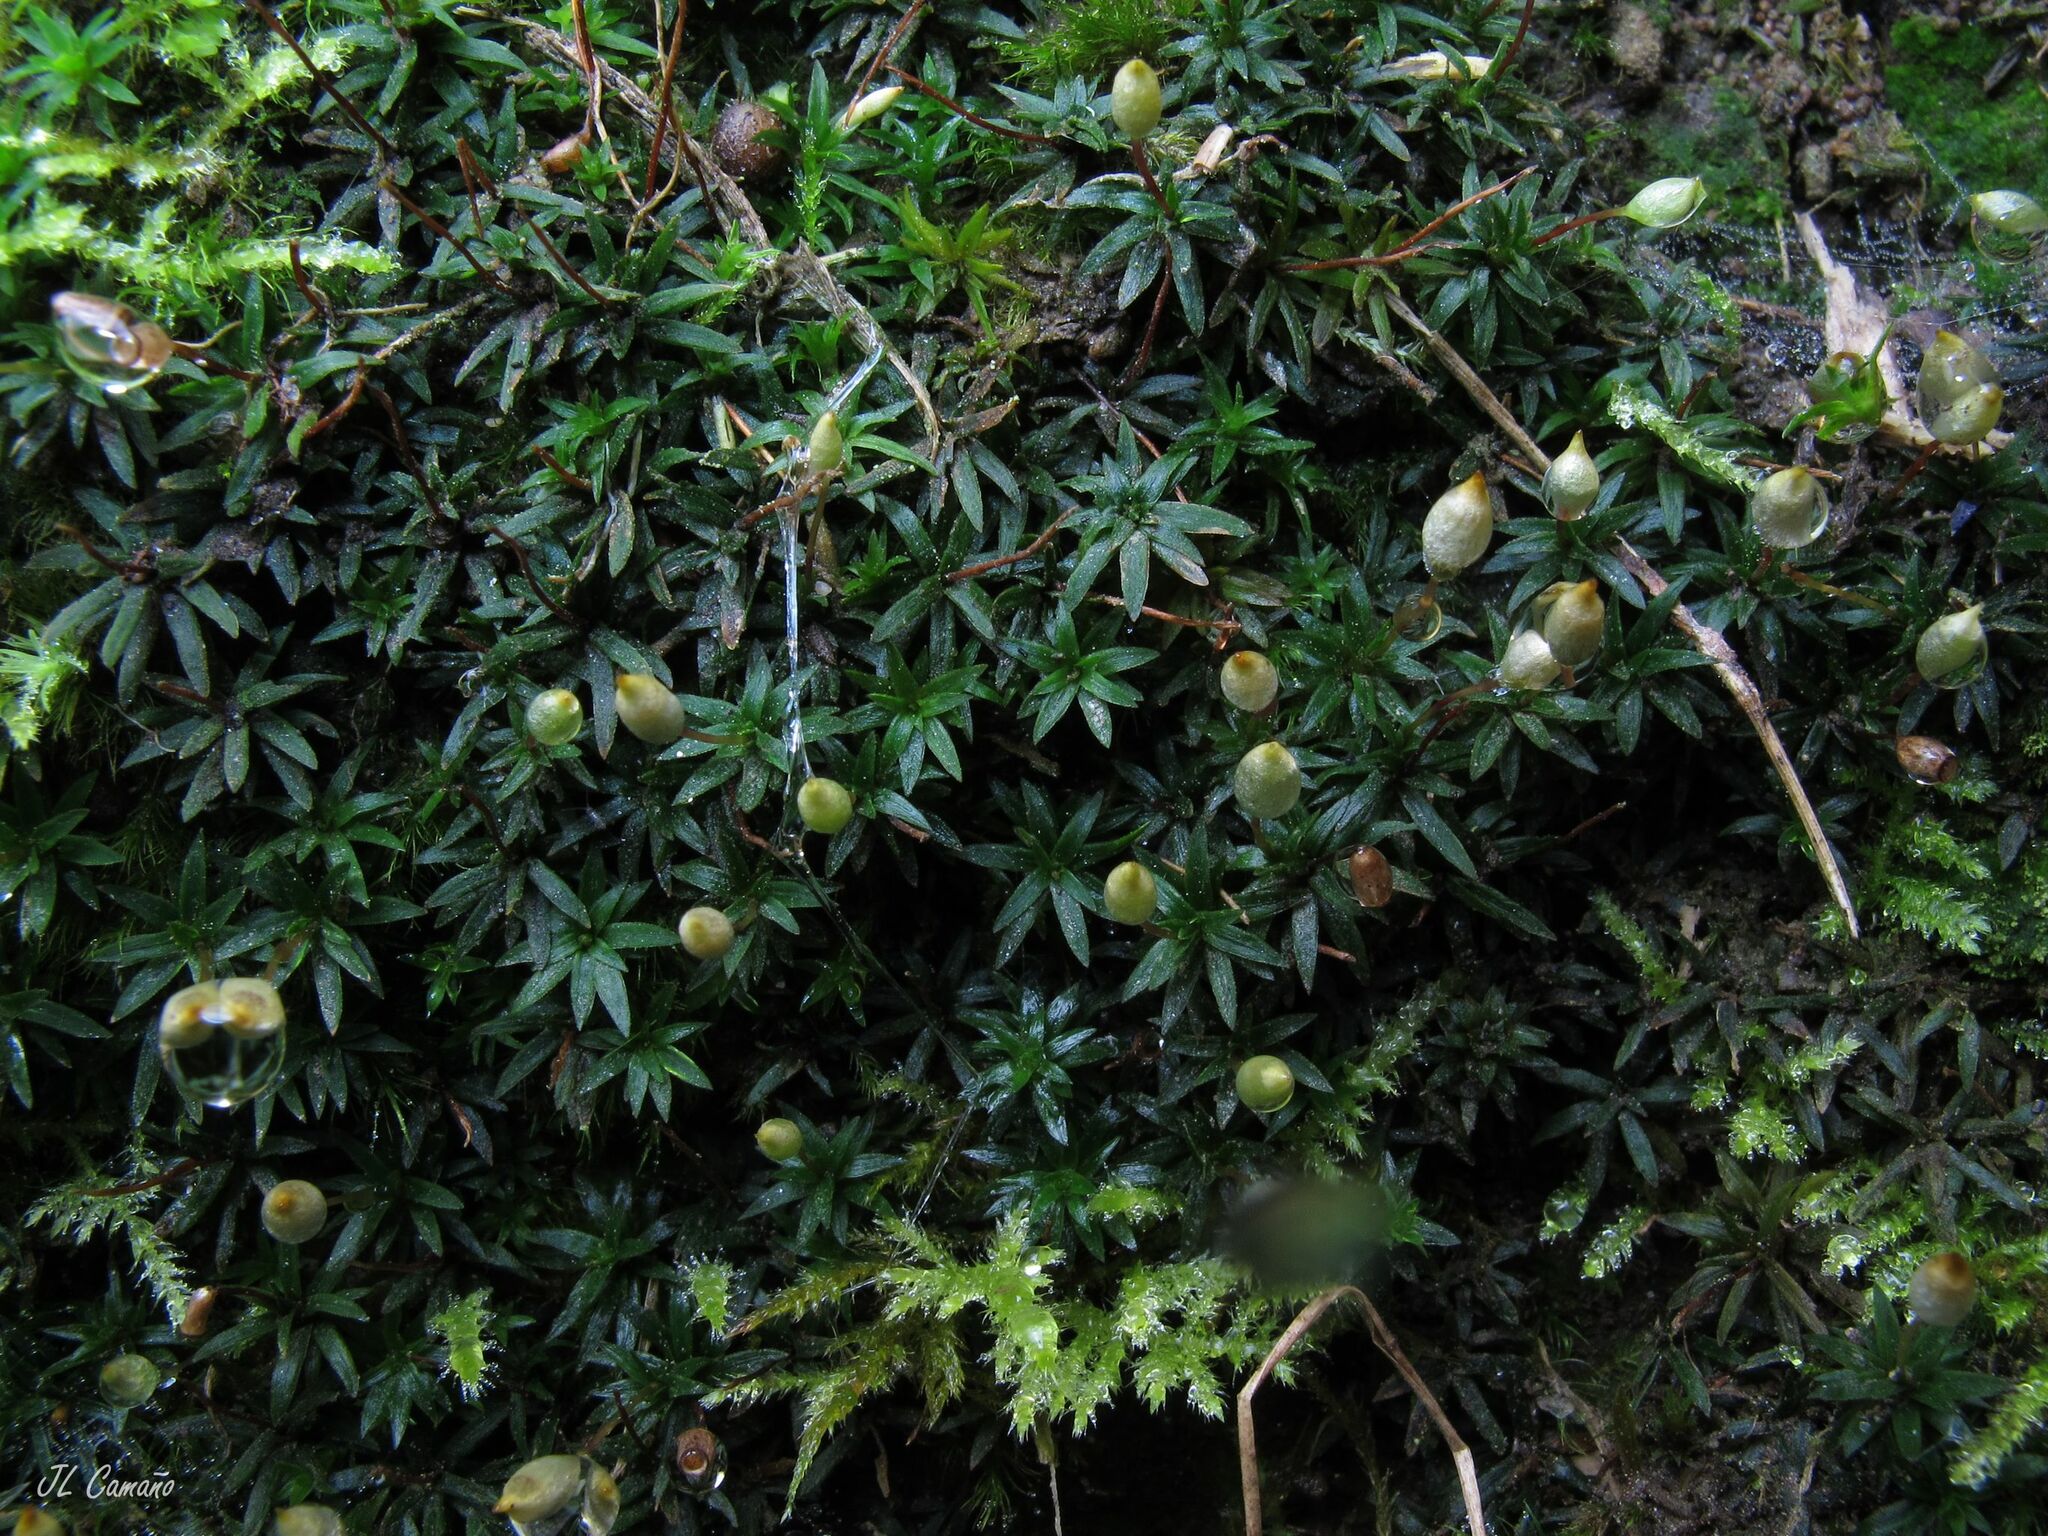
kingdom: Plantae
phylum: Bryophyta
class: Polytrichopsida
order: Polytrichales
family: Polytrichaceae
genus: Pogonatum
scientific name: Pogonatum aloides
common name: Aloe haircap
